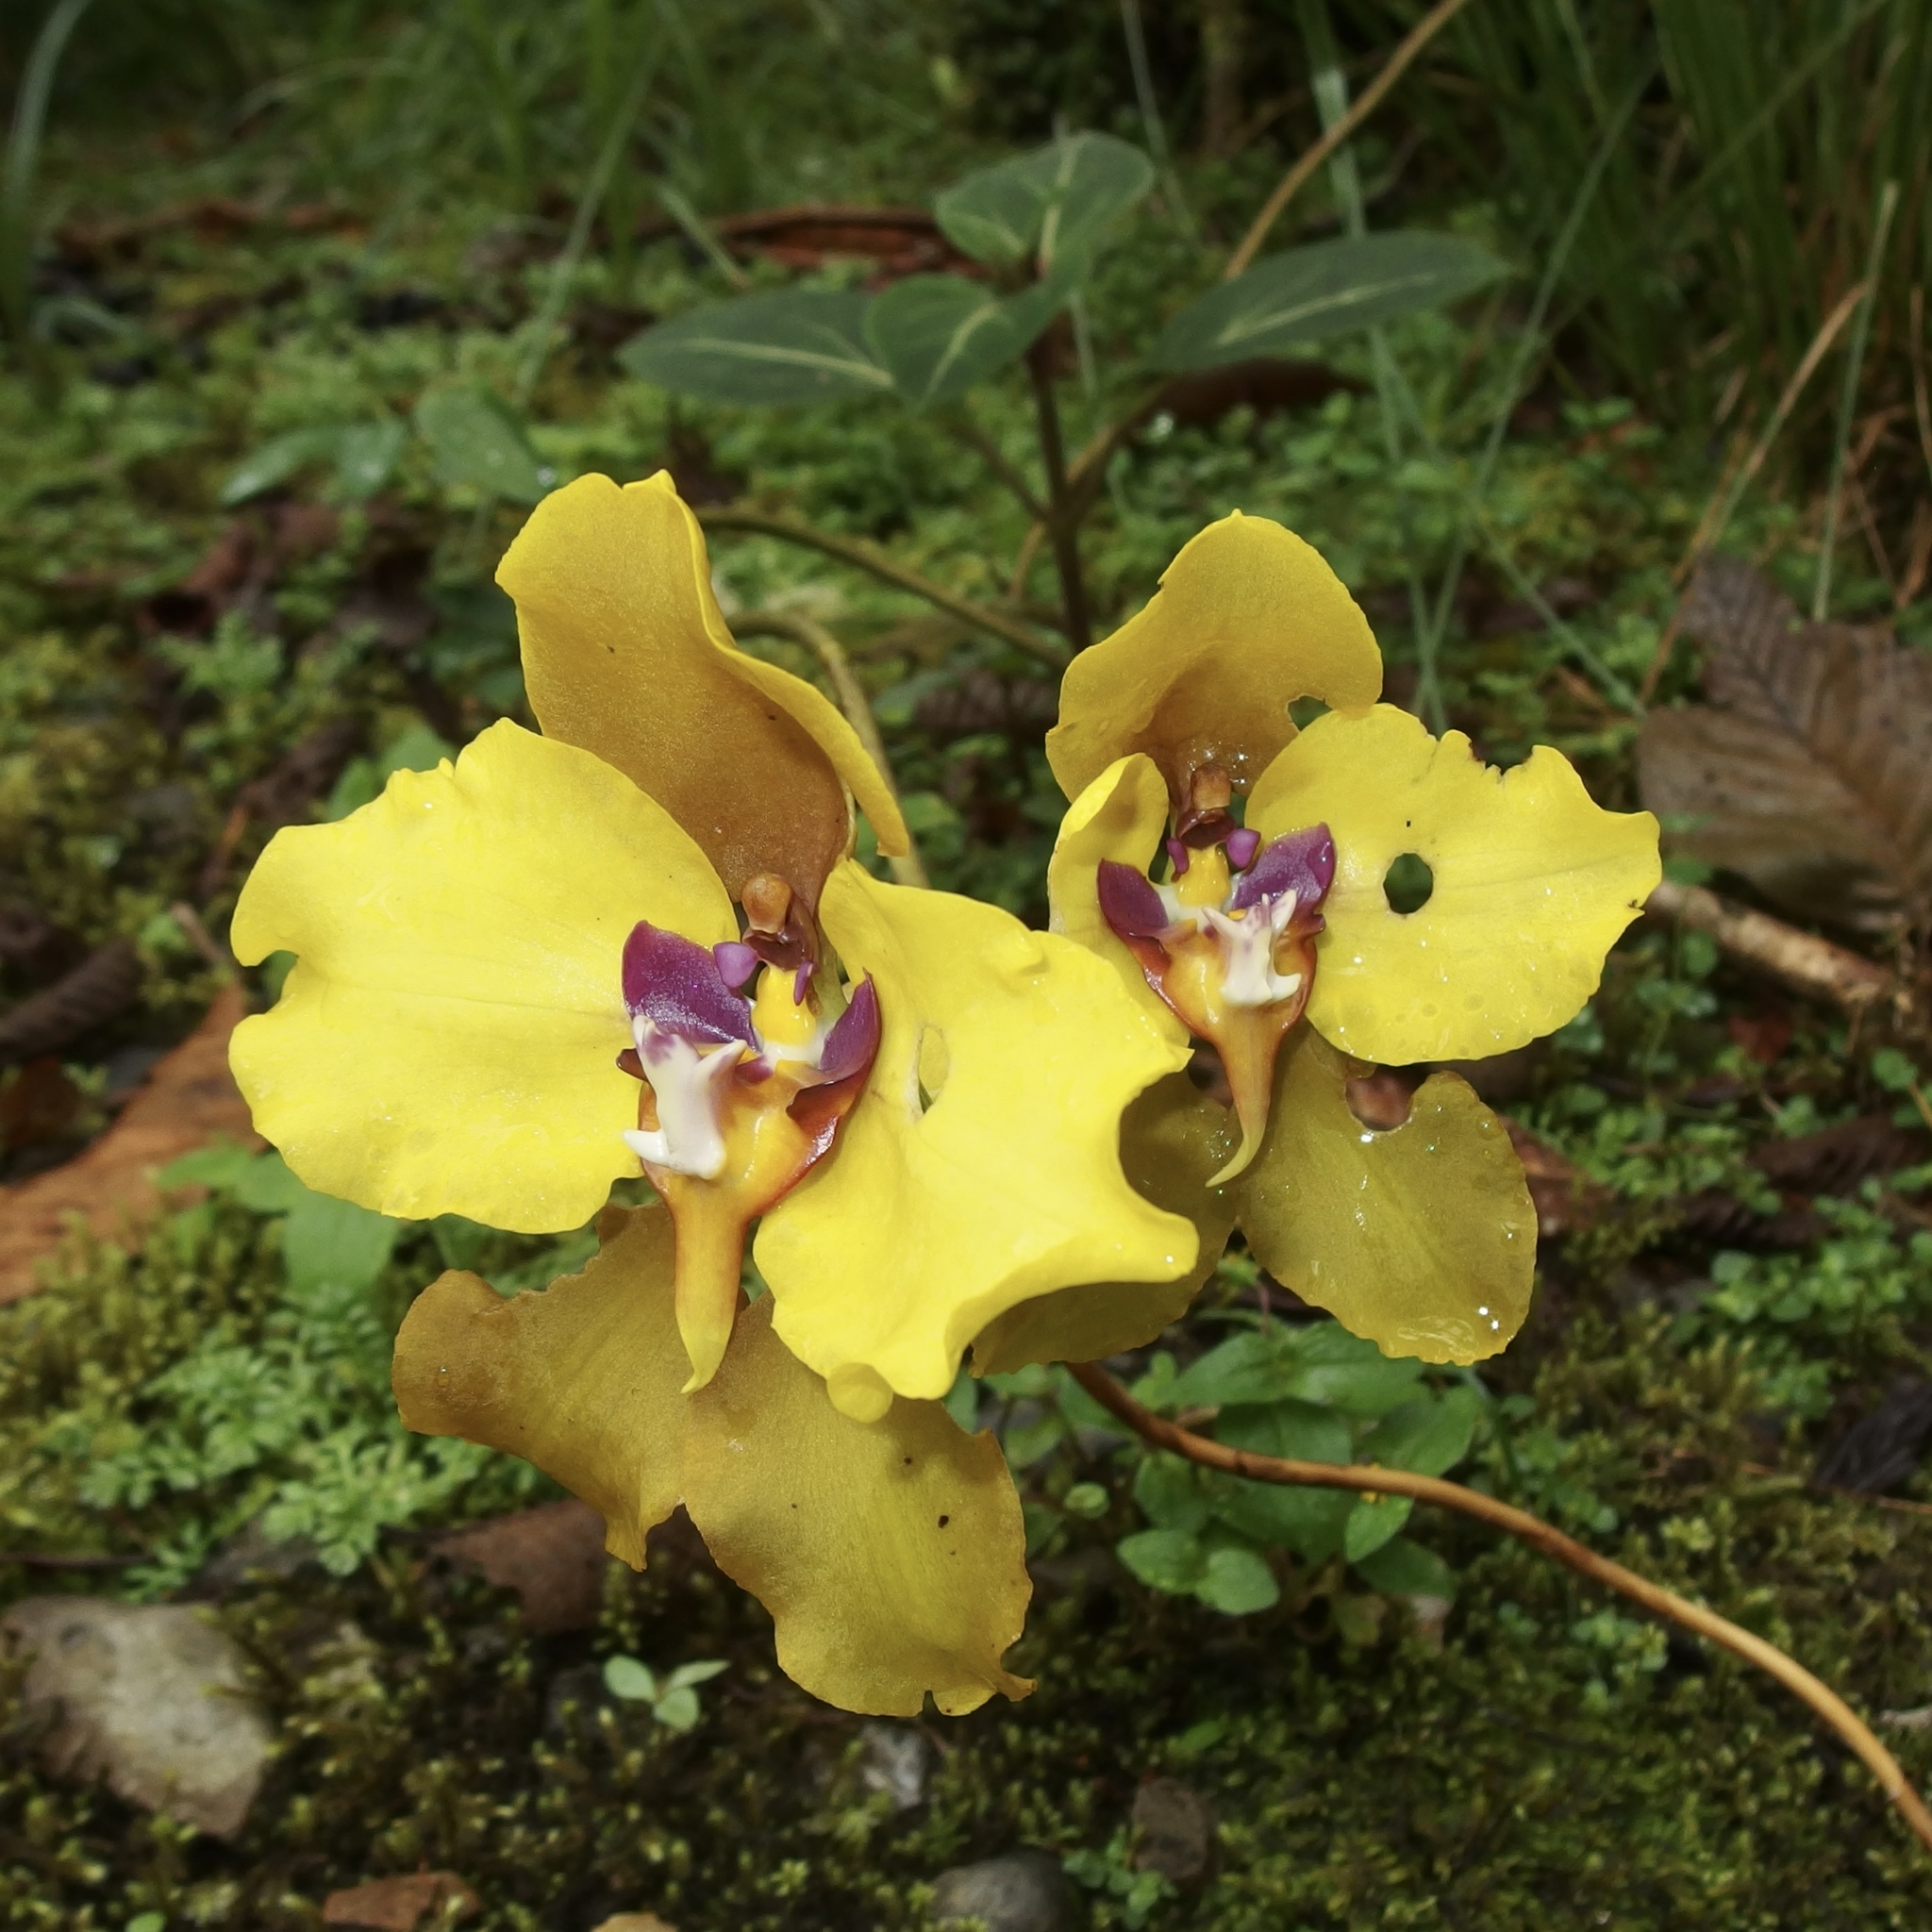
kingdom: Plantae
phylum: Tracheophyta
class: Liliopsida
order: Asparagales
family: Orchidaceae
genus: Cyrtochilum
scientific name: Cyrtochilum macranthum
